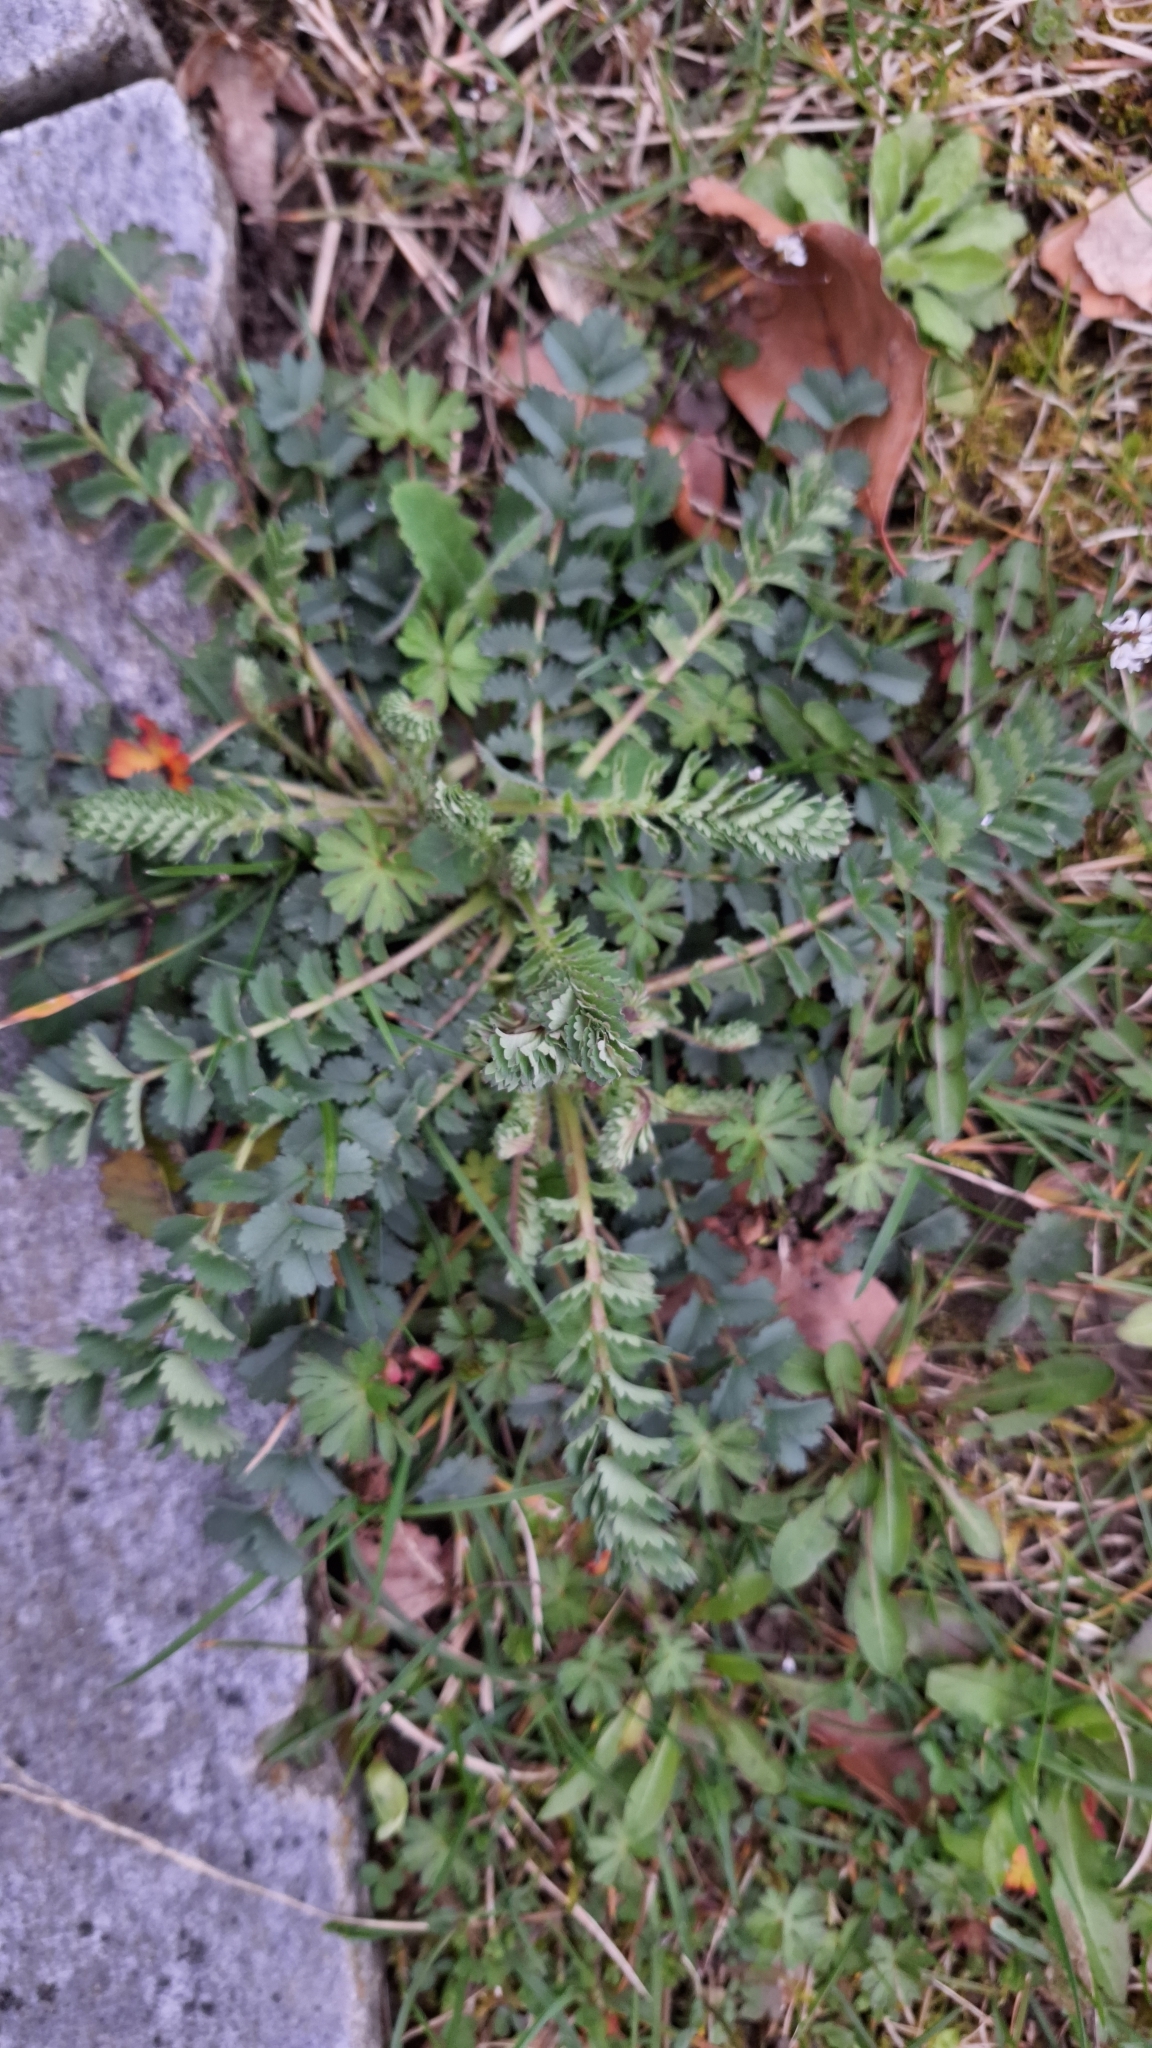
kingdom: Plantae
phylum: Tracheophyta
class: Magnoliopsida
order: Rosales
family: Rosaceae
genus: Poterium
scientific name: Poterium sanguisorba
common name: Salad burnet
